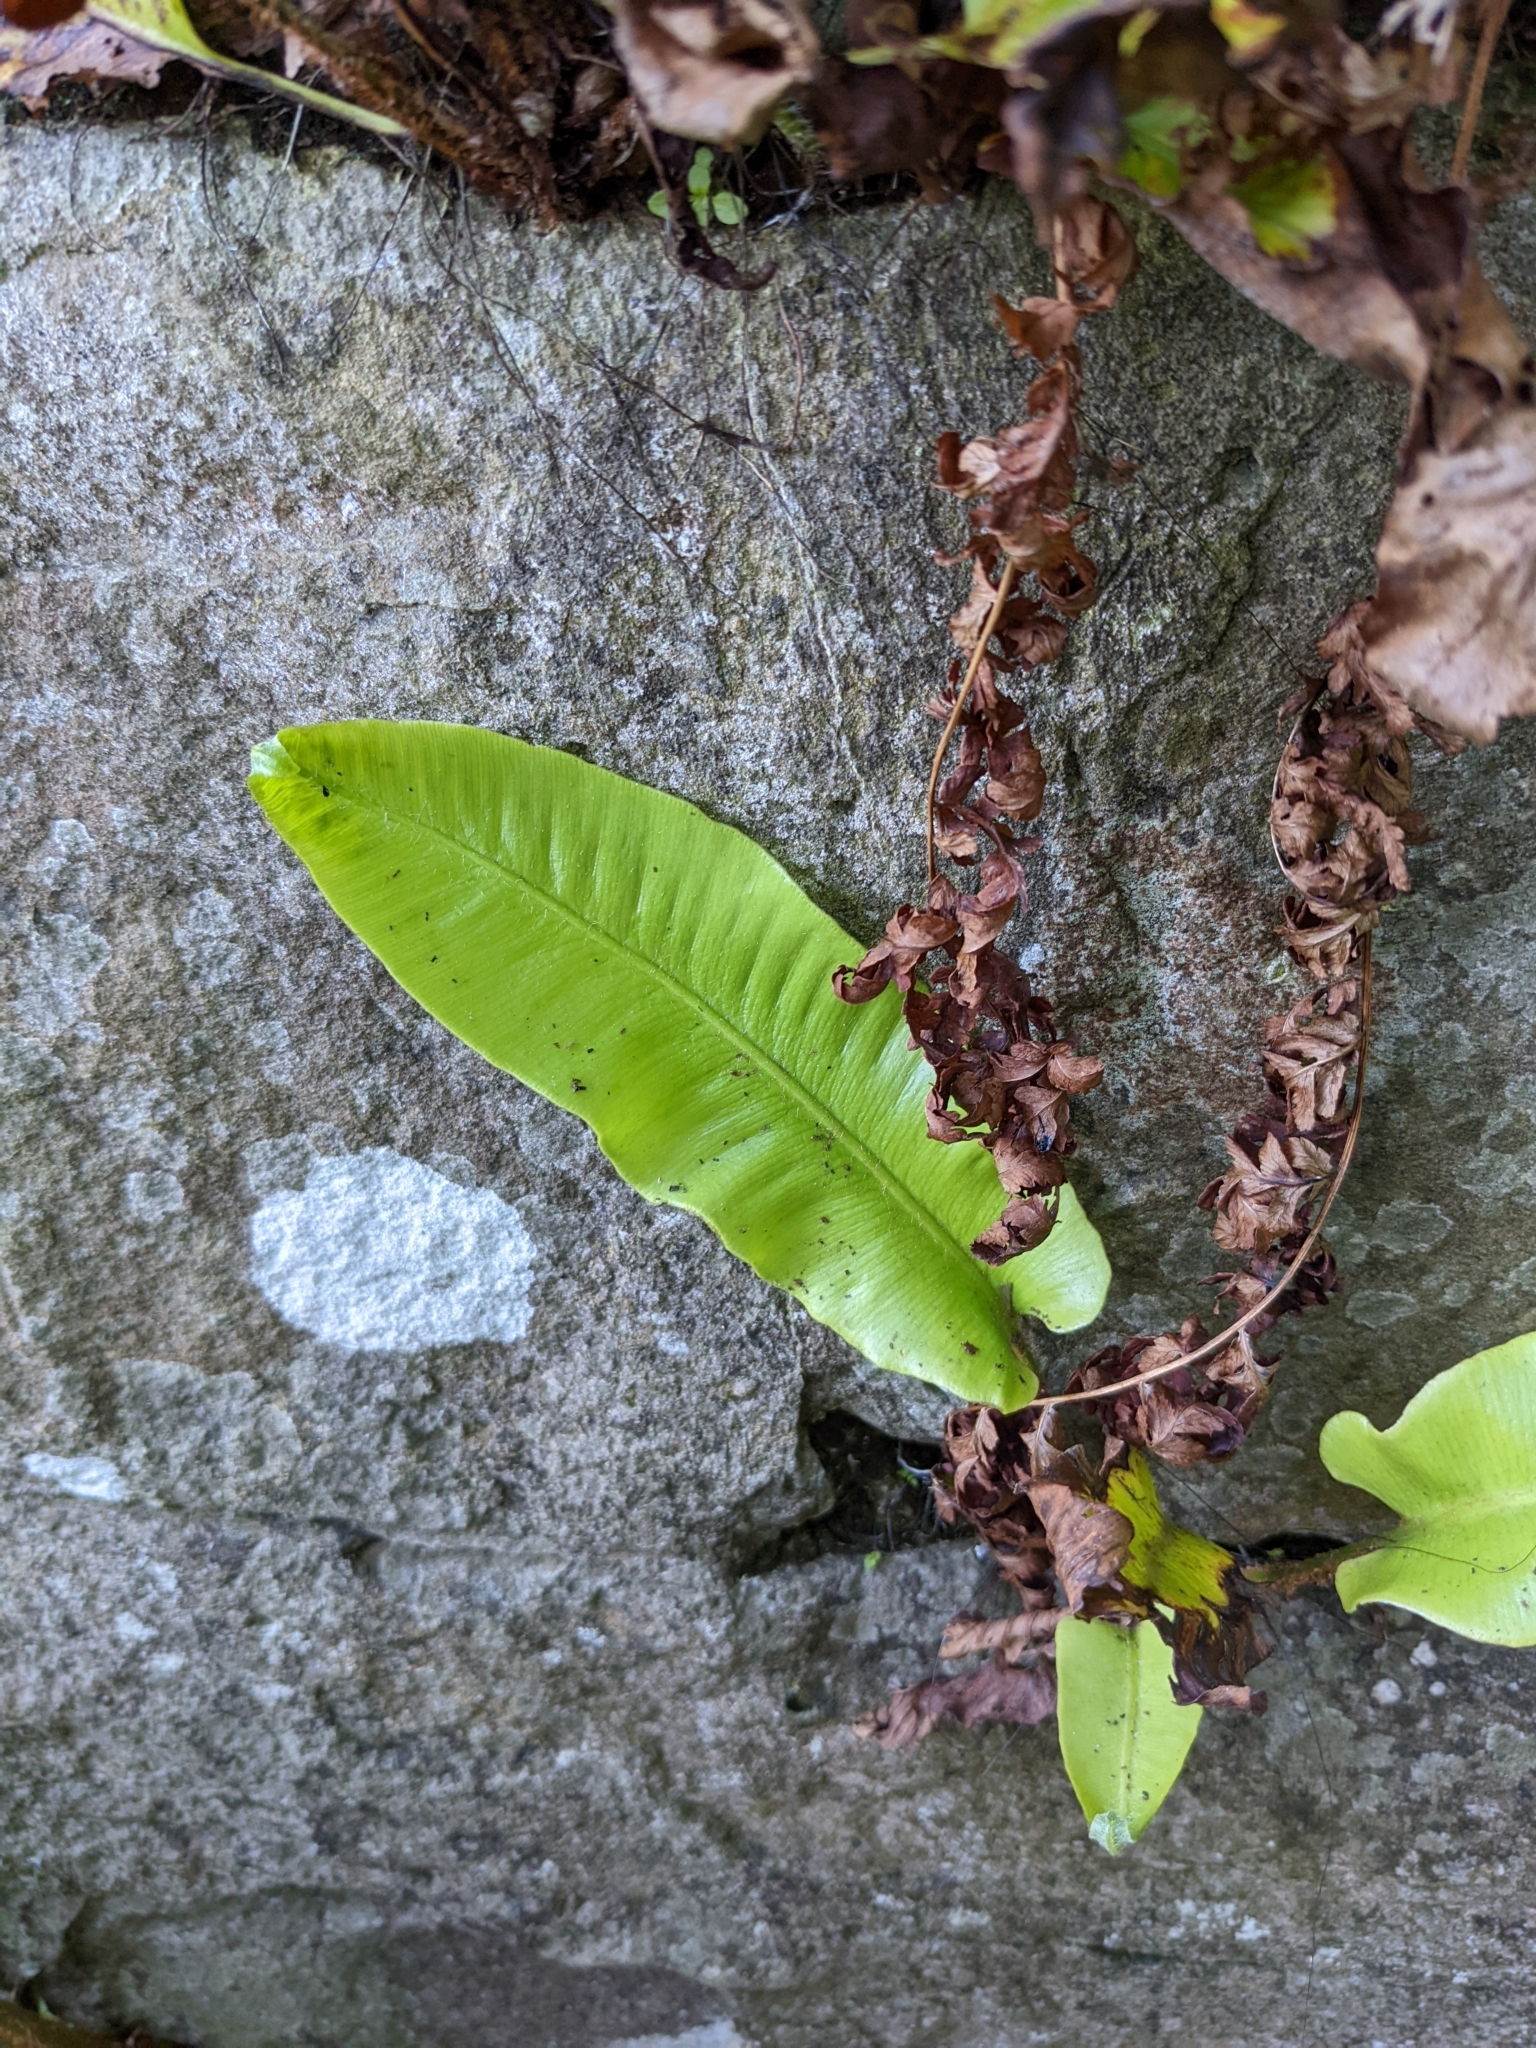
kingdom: Plantae
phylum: Tracheophyta
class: Polypodiopsida
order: Polypodiales
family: Aspleniaceae
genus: Asplenium
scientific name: Asplenium scolopendrium
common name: Hart's-tongue fern
